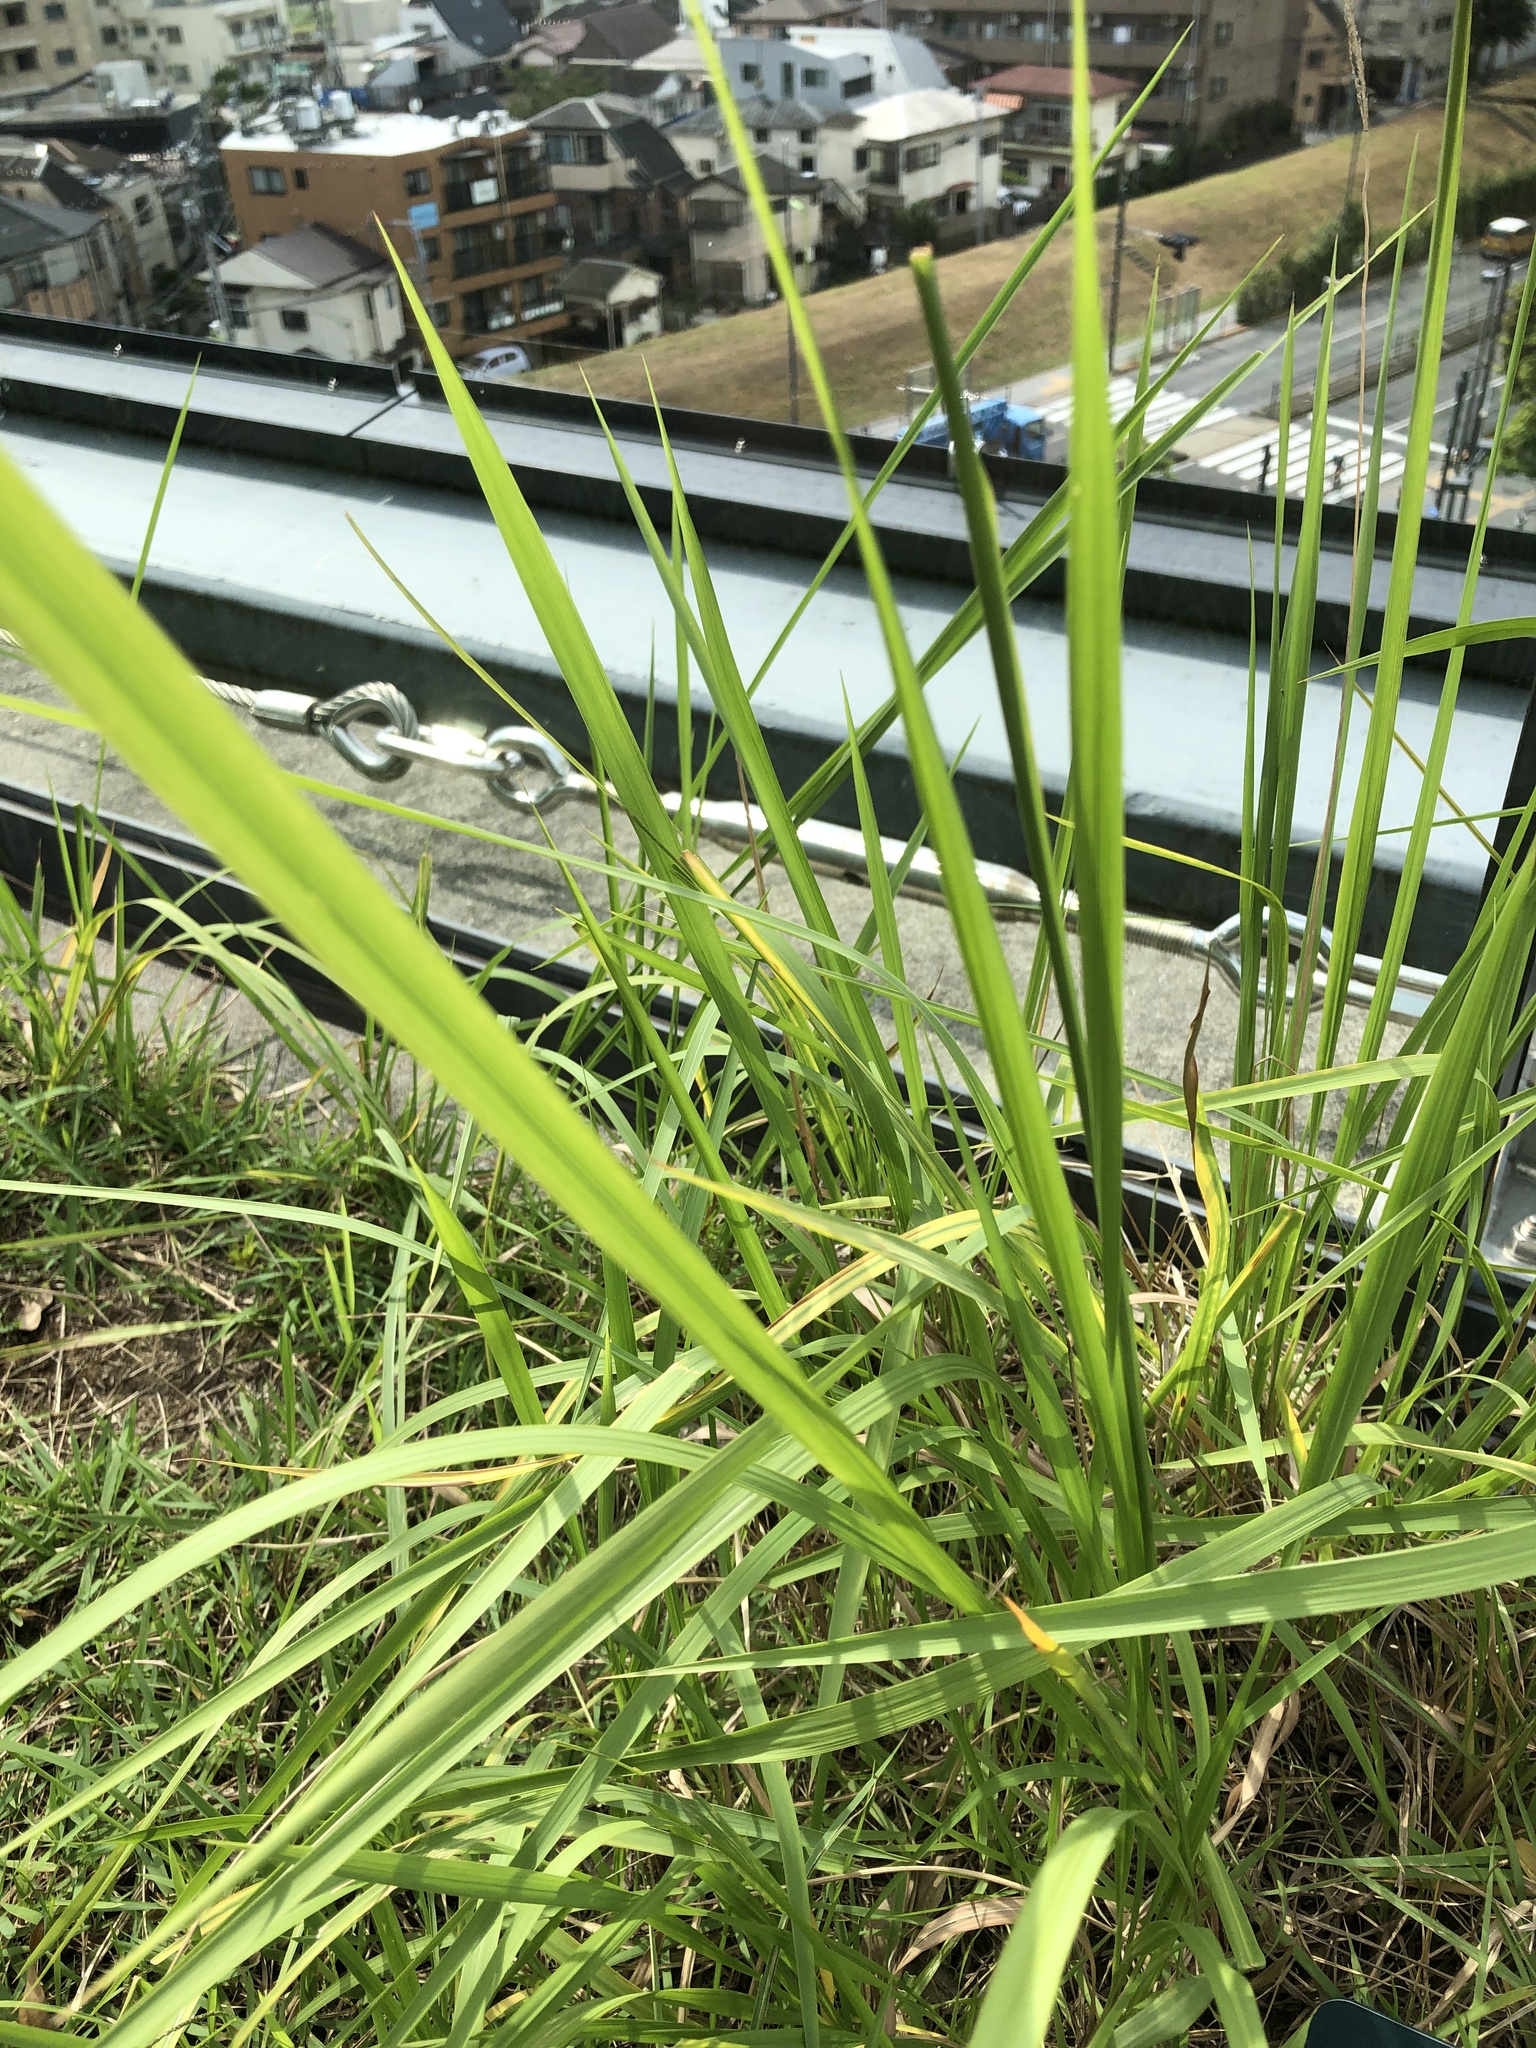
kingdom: Plantae
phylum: Tracheophyta
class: Liliopsida
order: Poales
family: Poaceae
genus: Imperata
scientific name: Imperata cylindrica
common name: Cogongrass
